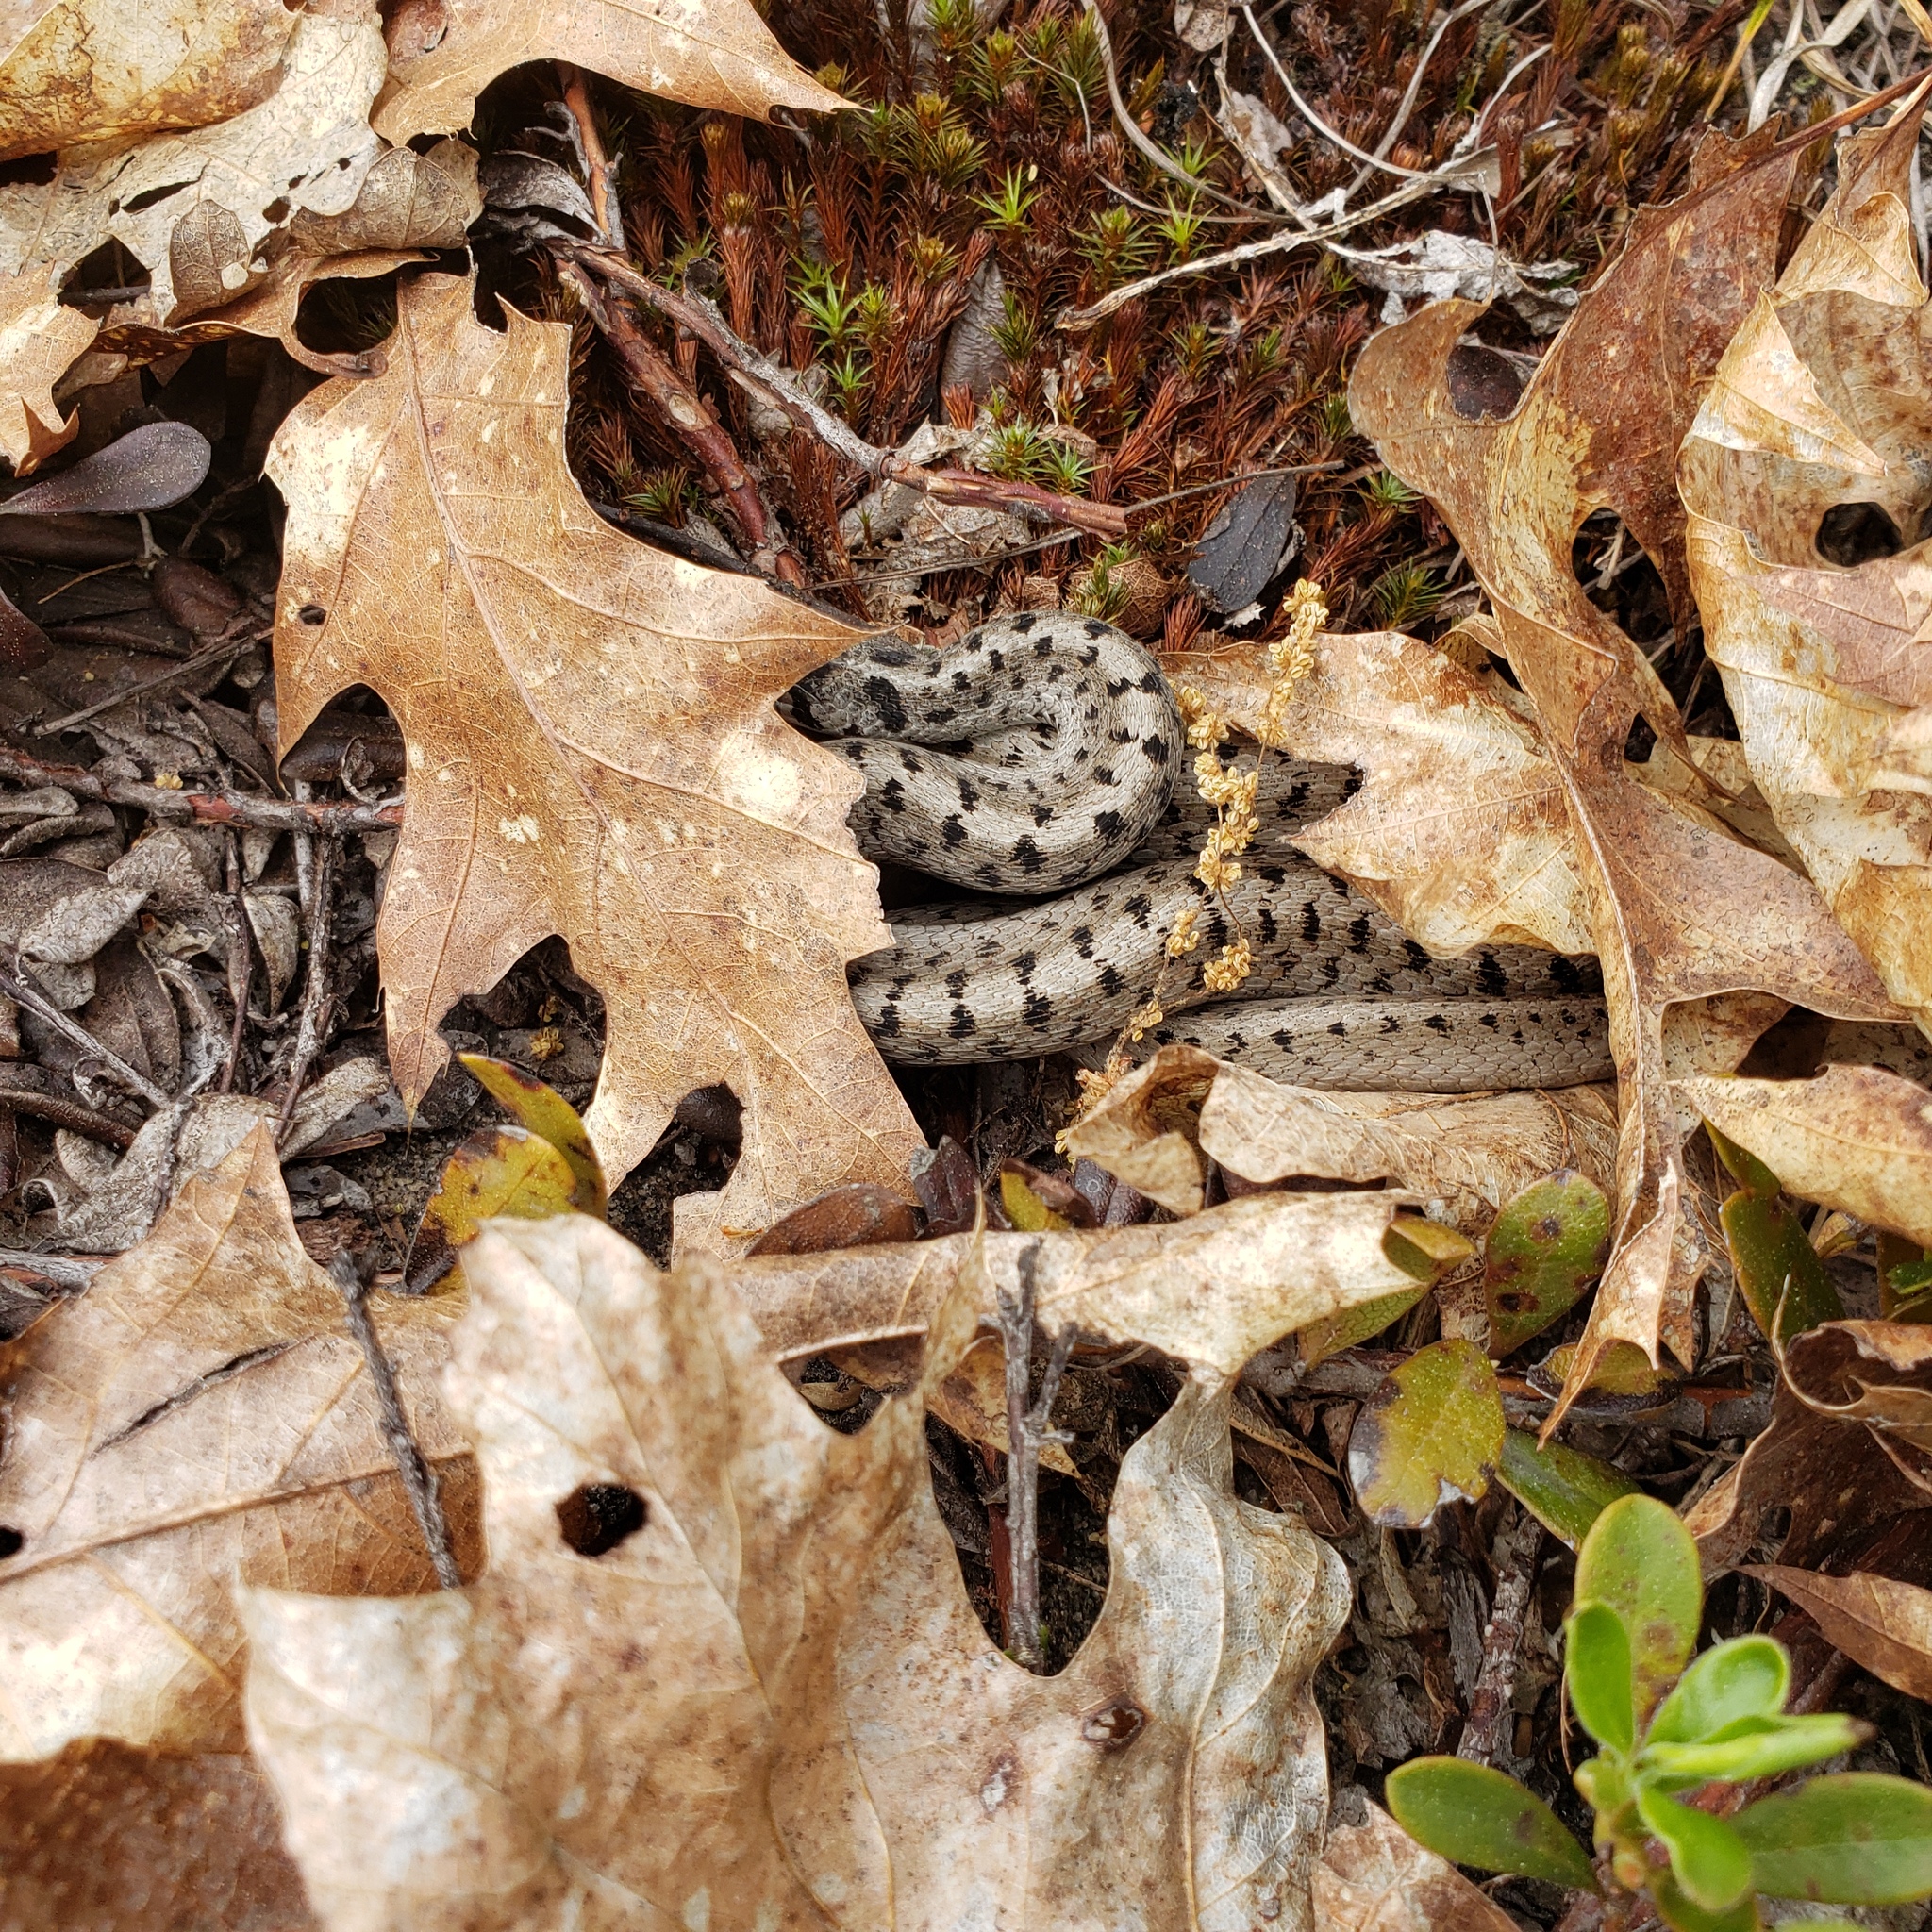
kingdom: Animalia
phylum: Chordata
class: Squamata
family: Colubridae
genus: Storeria
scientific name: Storeria dekayi
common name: (dekay’s) brown snake
